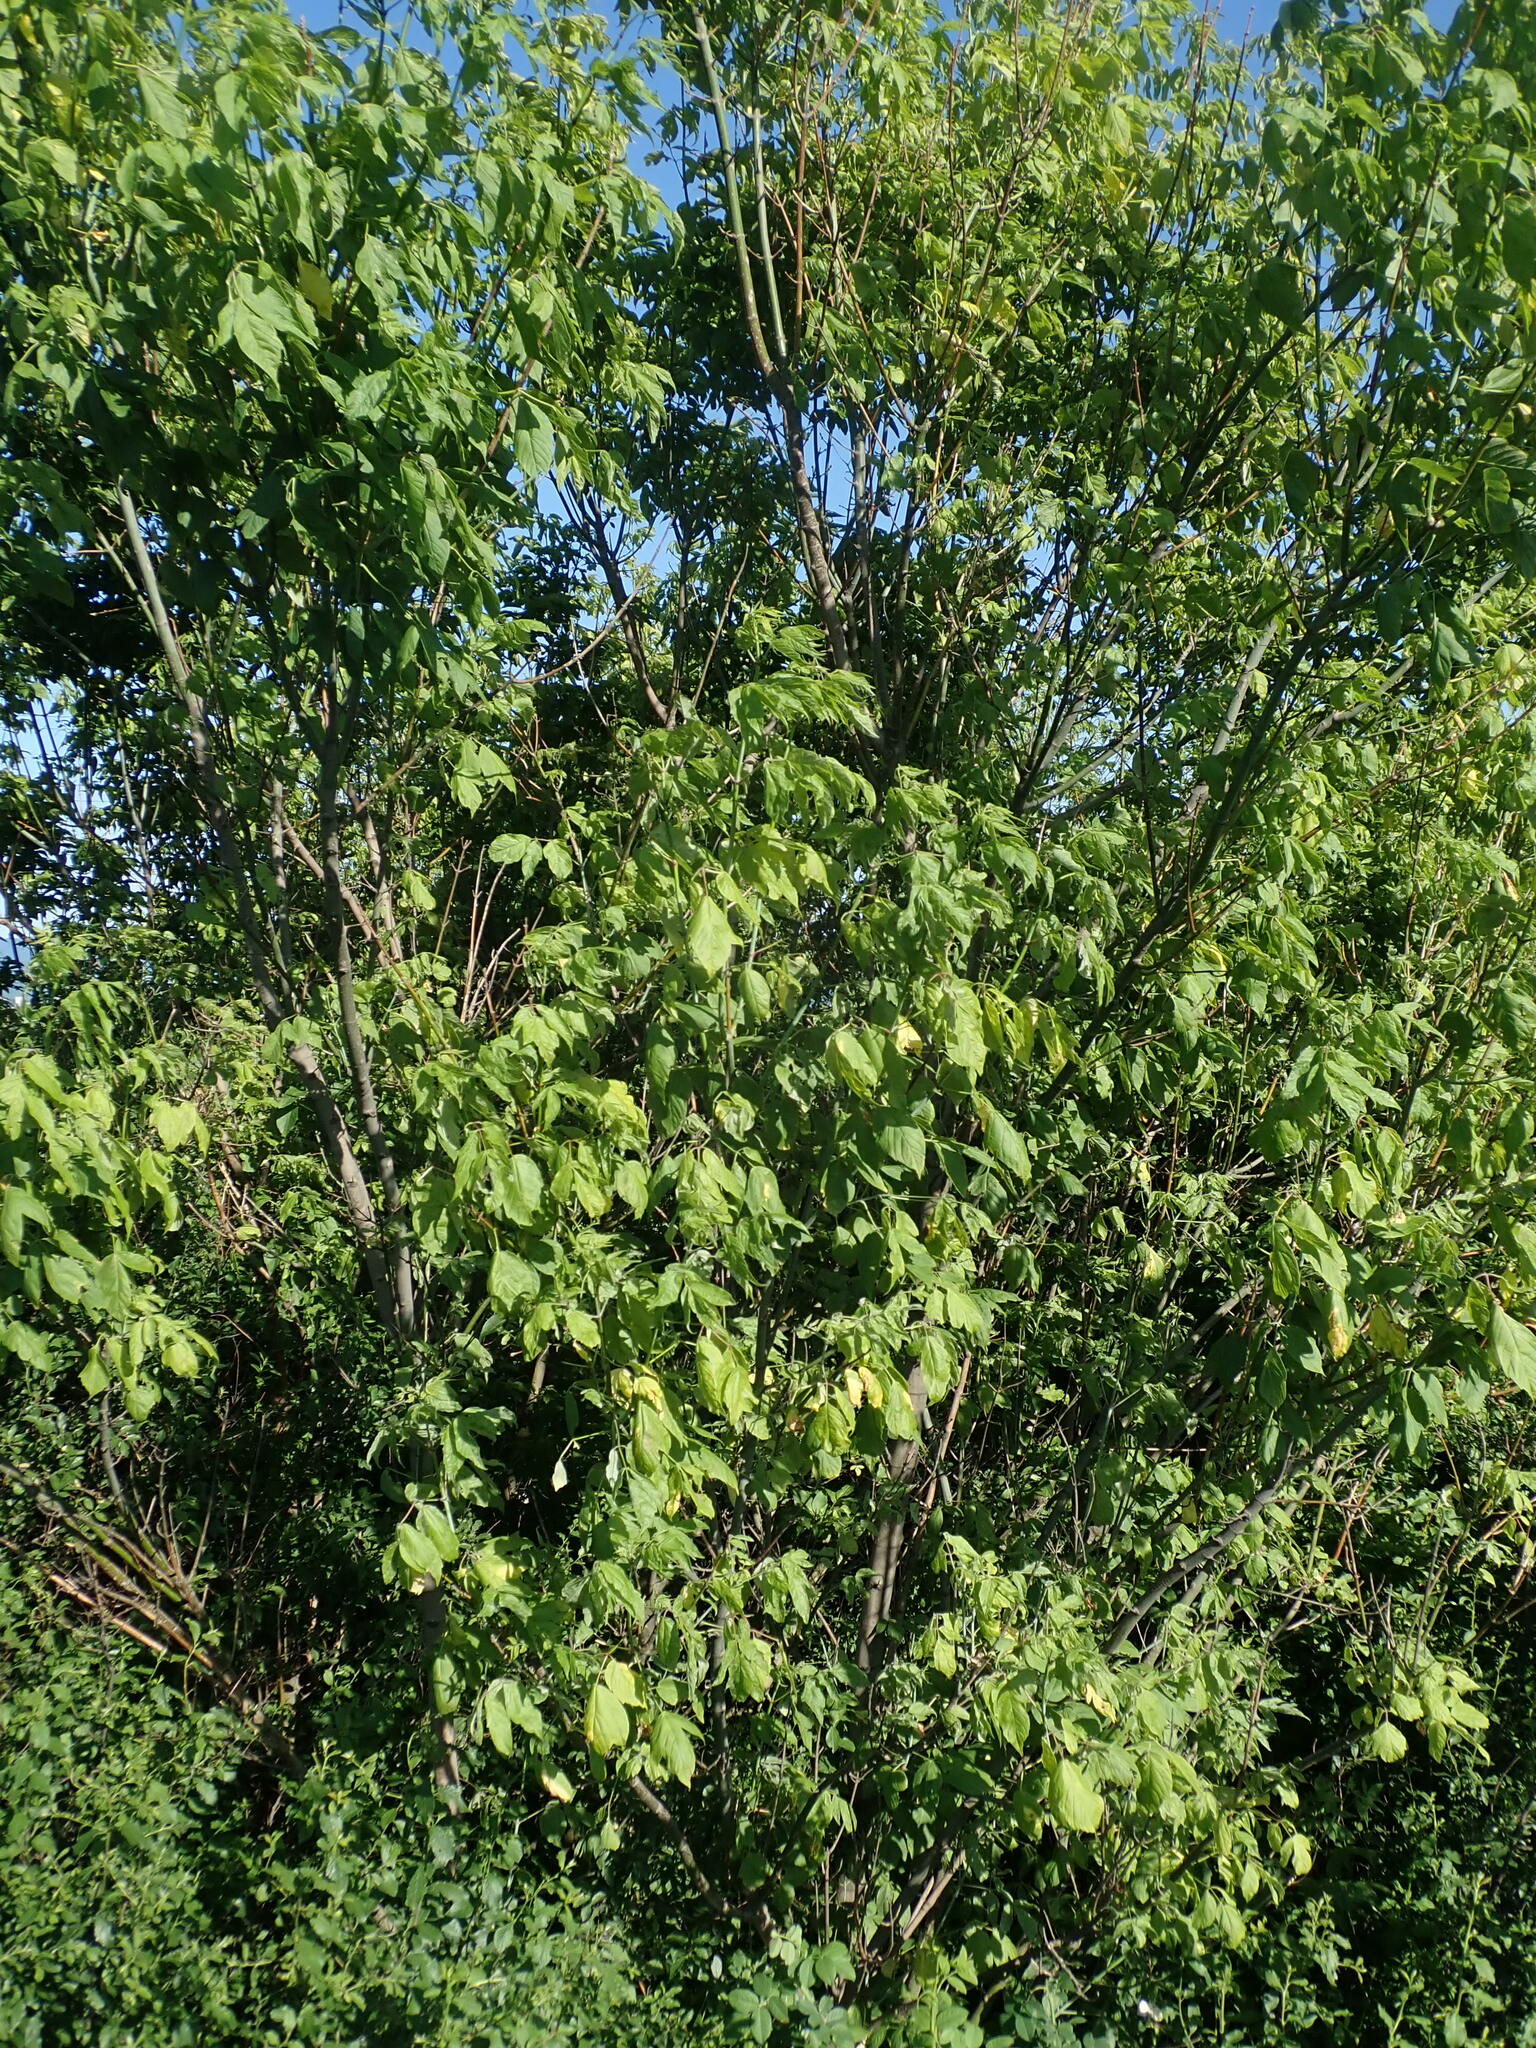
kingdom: Plantae
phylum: Tracheophyta
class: Magnoliopsida
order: Sapindales
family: Sapindaceae
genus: Acer
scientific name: Acer negundo
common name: Ashleaf maple
